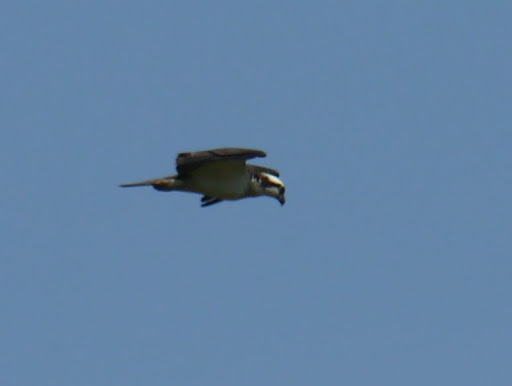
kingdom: Animalia
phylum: Chordata
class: Aves
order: Accipitriformes
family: Pandionidae
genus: Pandion
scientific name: Pandion haliaetus
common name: Osprey
